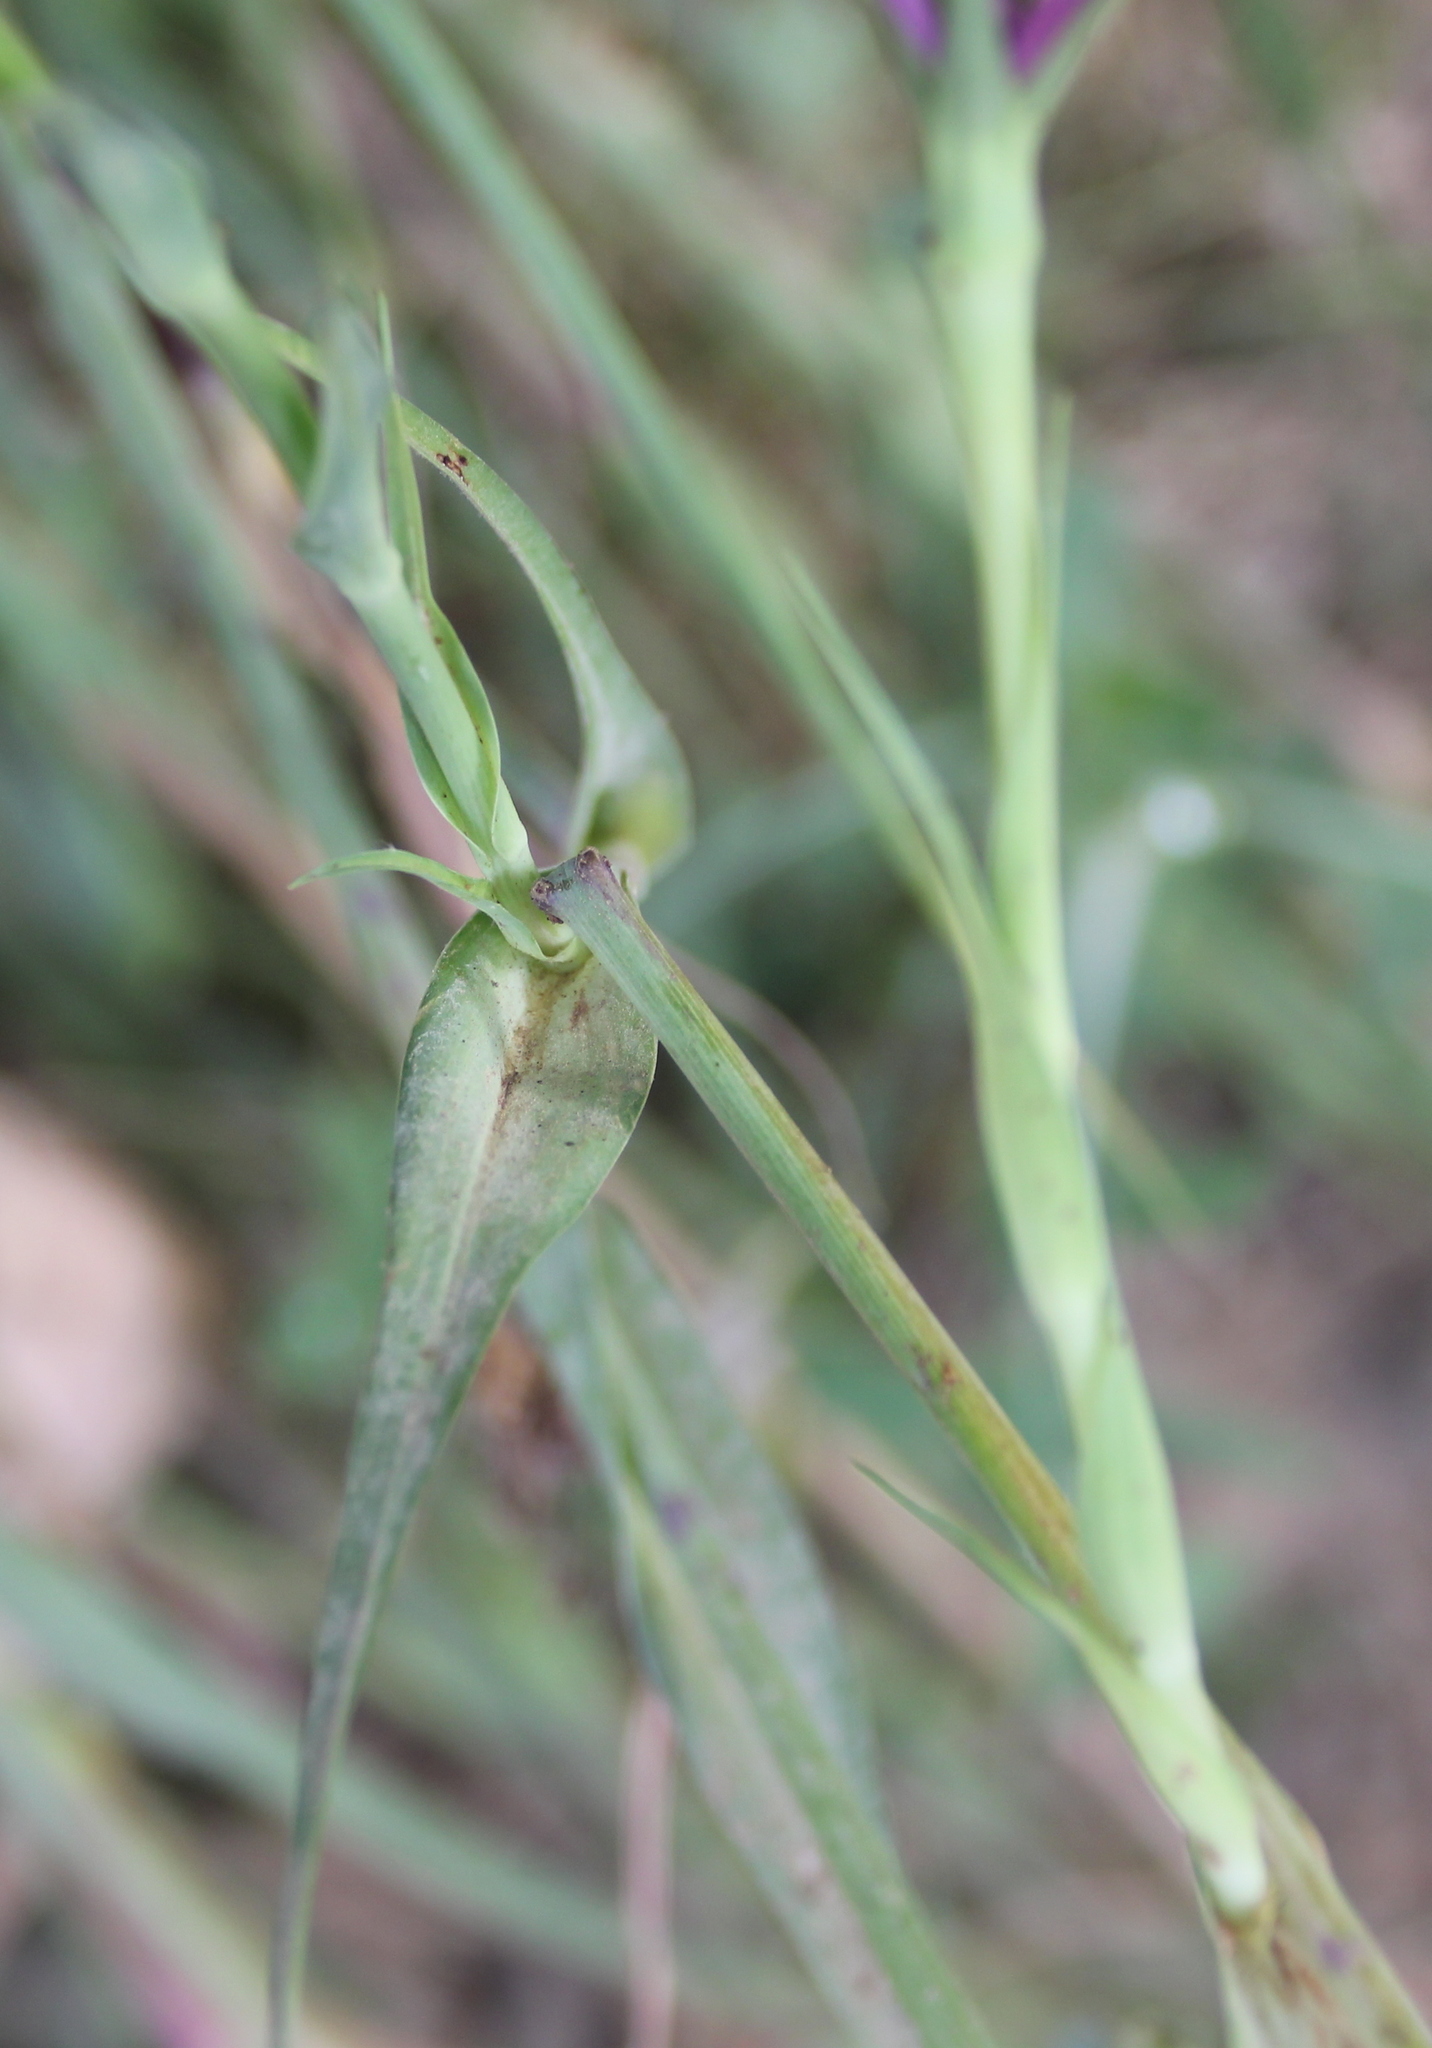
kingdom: Plantae
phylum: Tracheophyta
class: Magnoliopsida
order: Asterales
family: Asteraceae
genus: Tragopogon
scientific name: Tragopogon porrifolius
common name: Salsify
